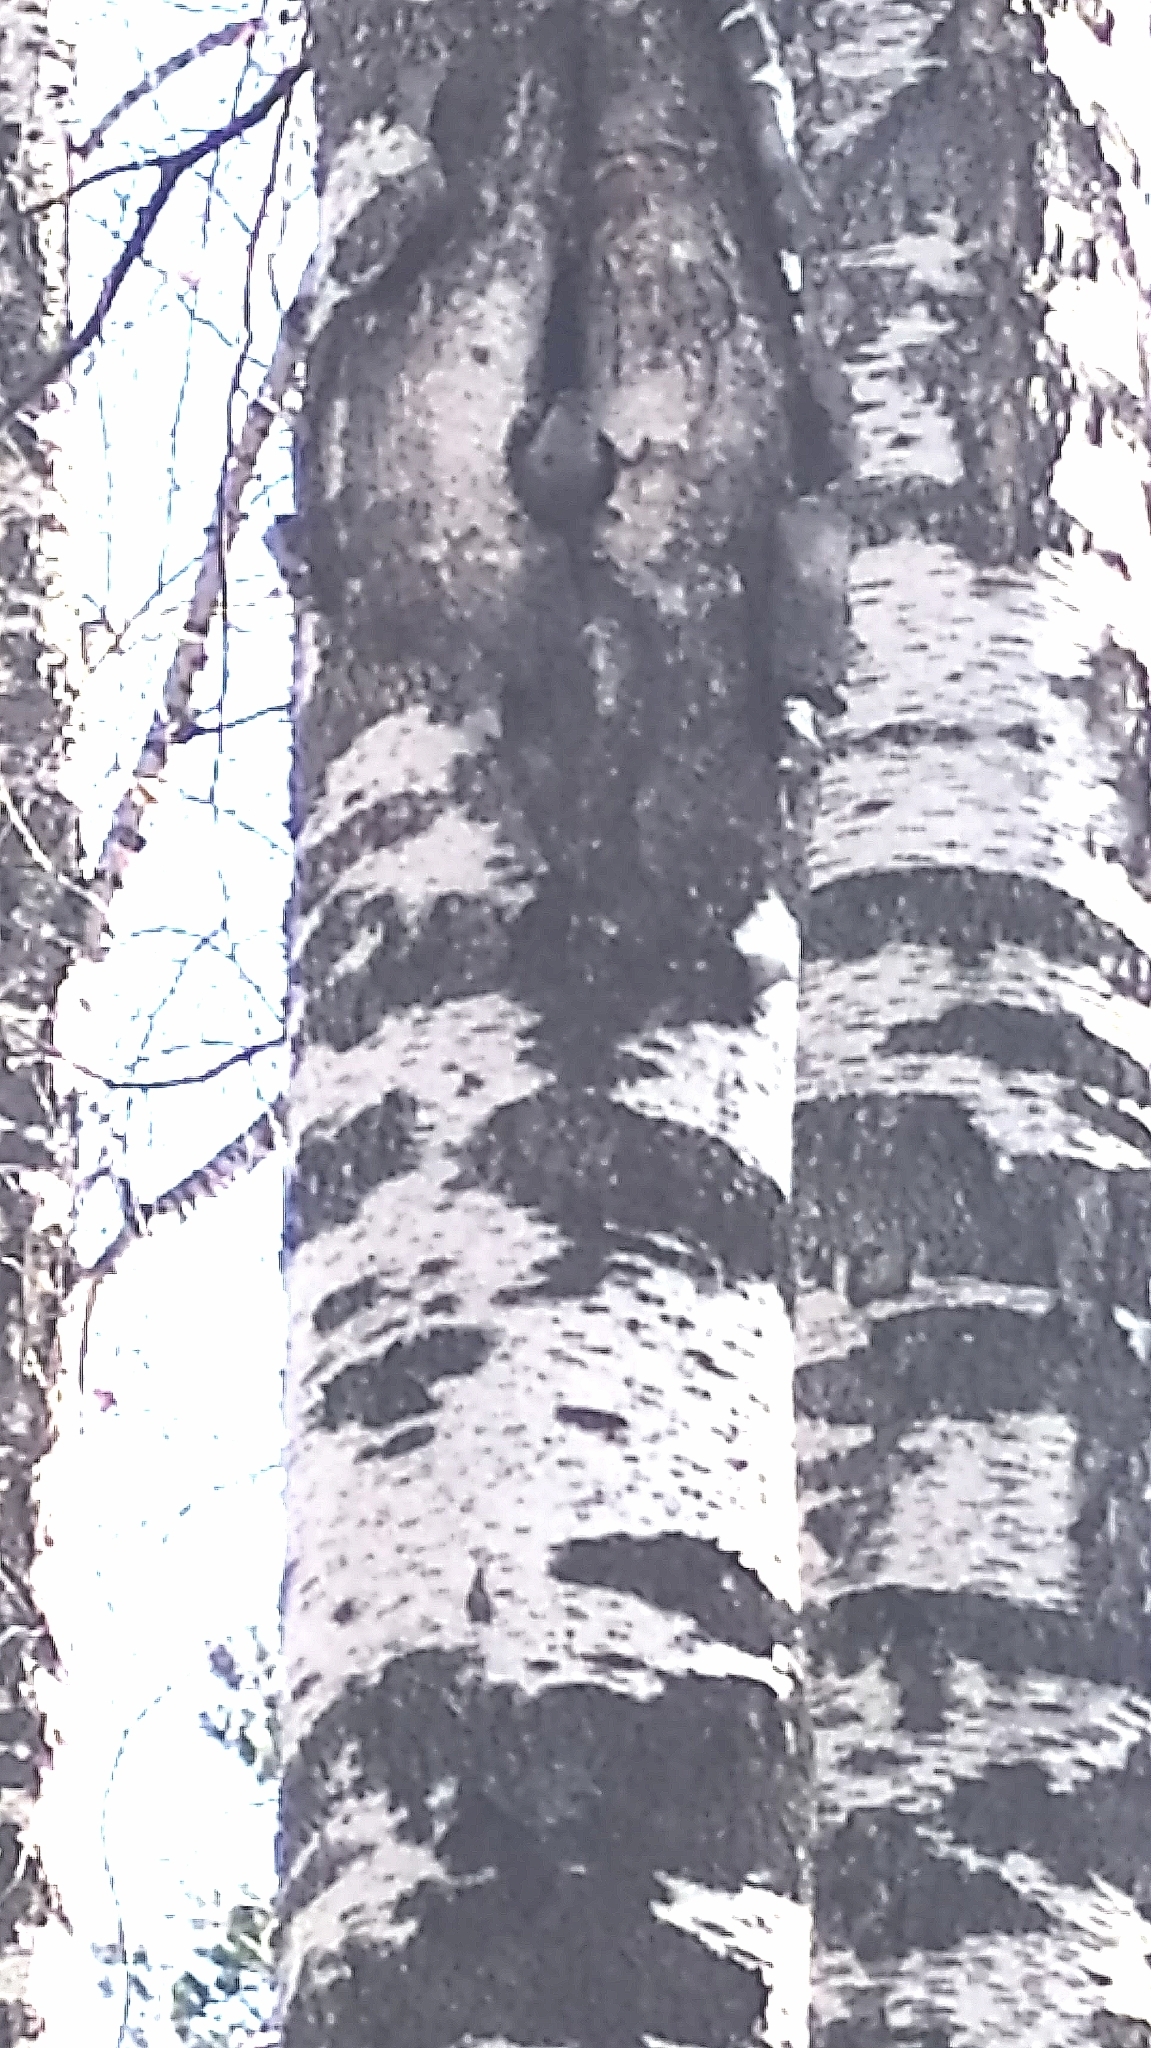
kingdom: Animalia
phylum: Chordata
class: Aves
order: Passeriformes
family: Sittidae
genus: Sitta
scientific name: Sitta europaea
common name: Eurasian nuthatch
